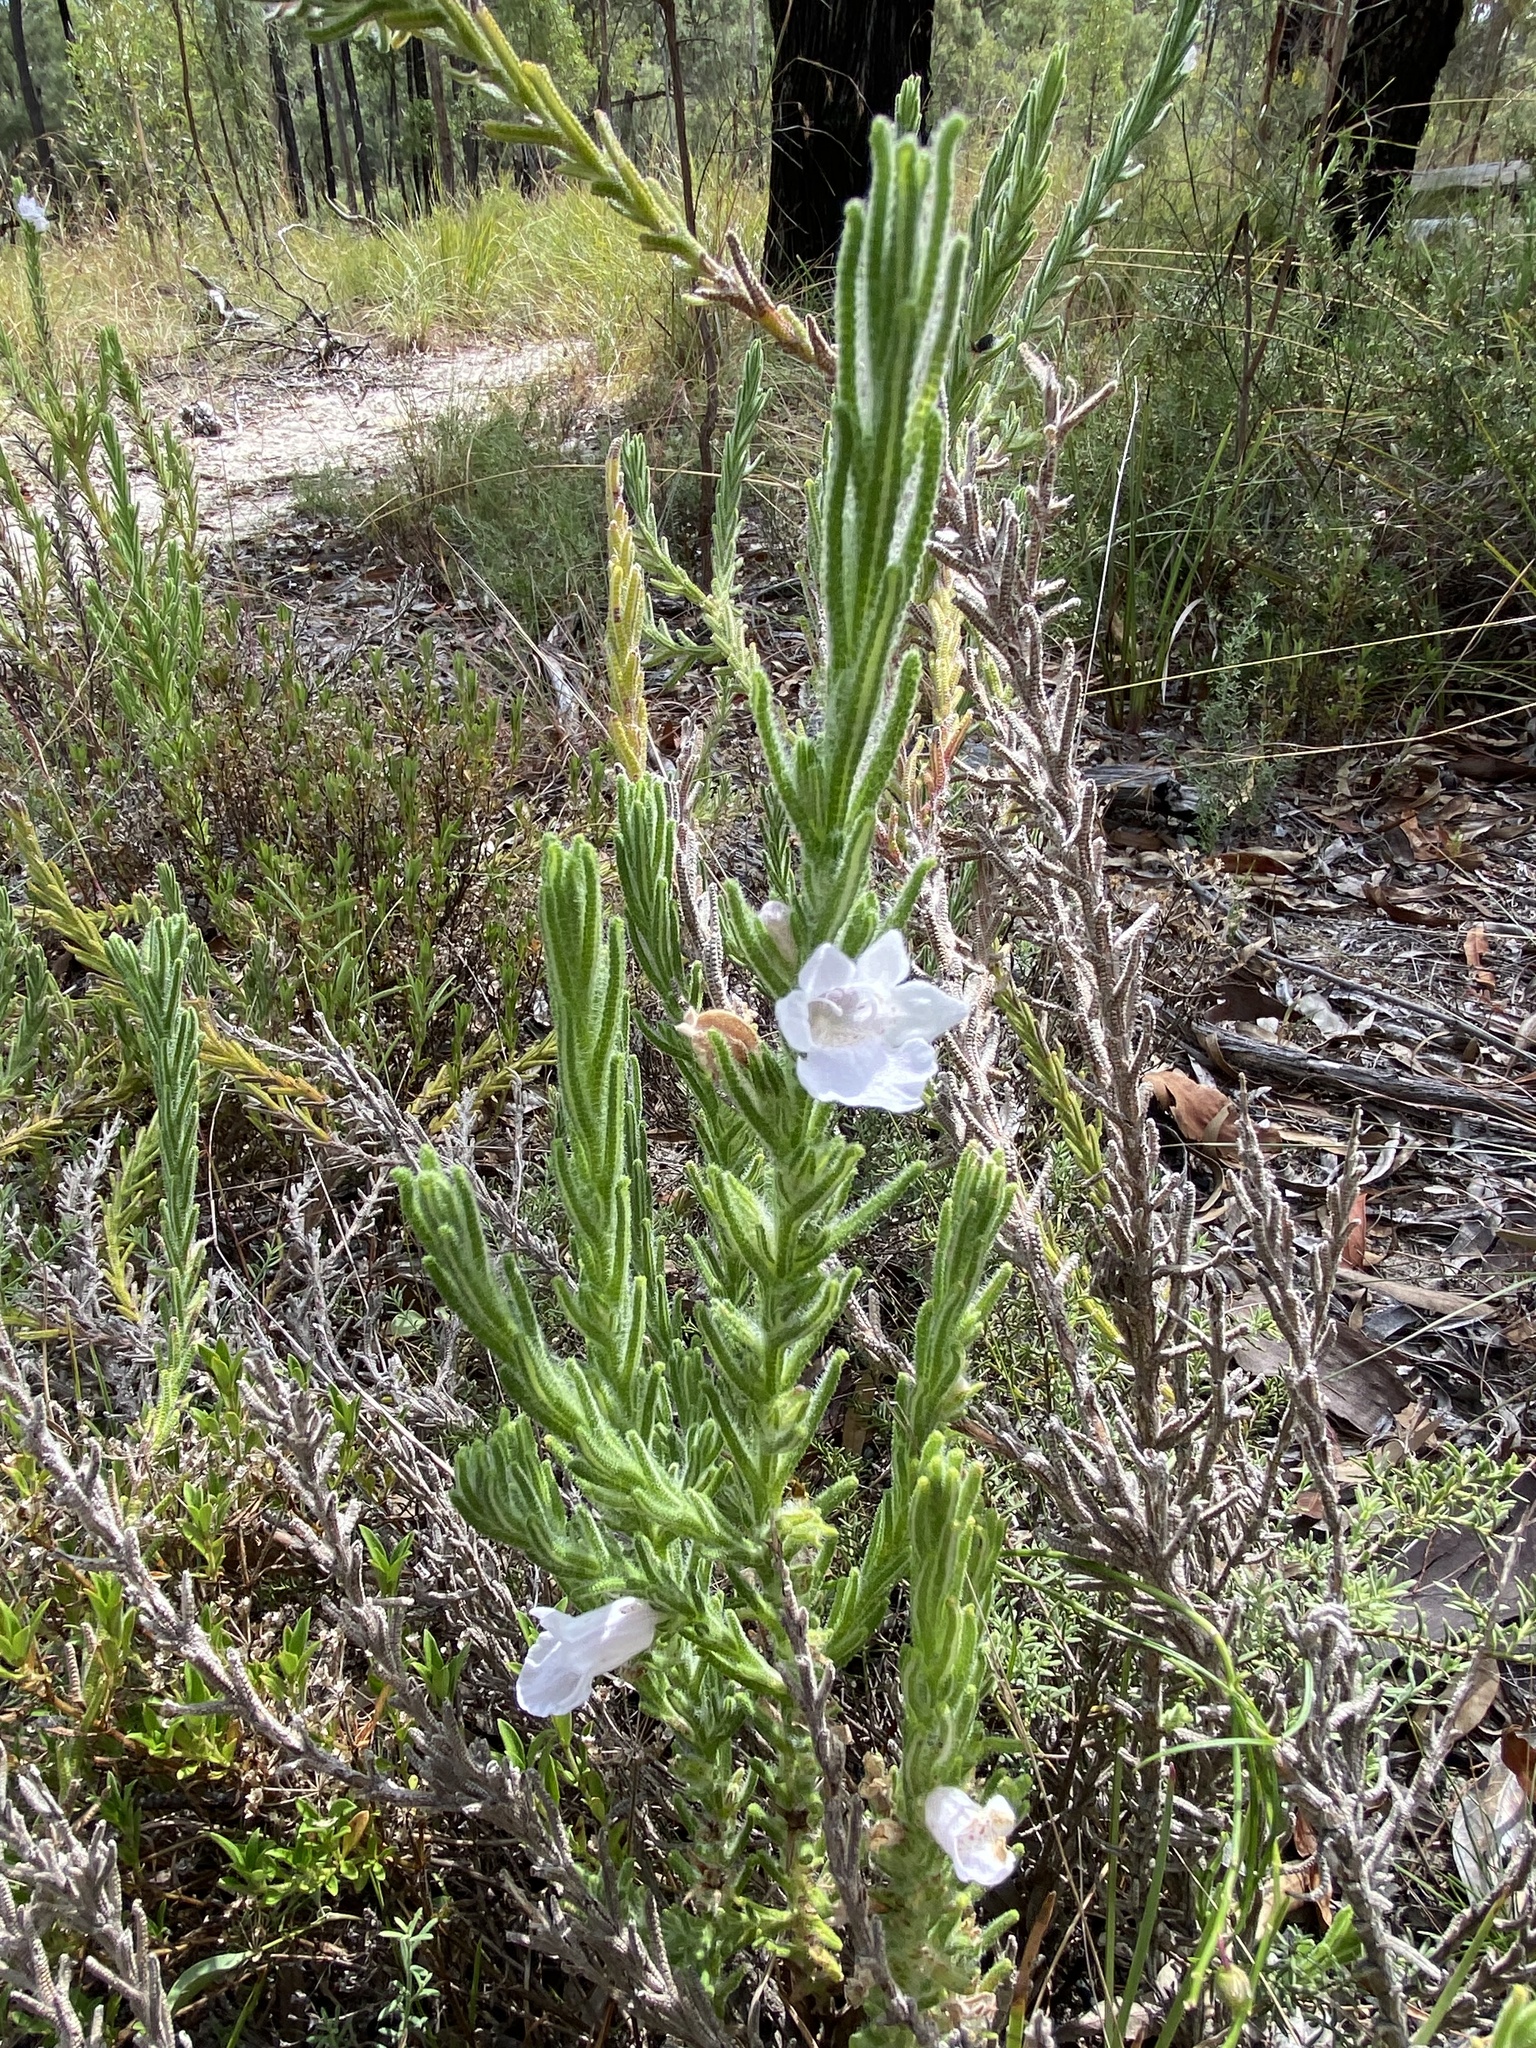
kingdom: Plantae
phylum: Tracheophyta
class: Magnoliopsida
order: Lamiales
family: Lamiaceae
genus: Chloanthes
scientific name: Chloanthes parviflora
